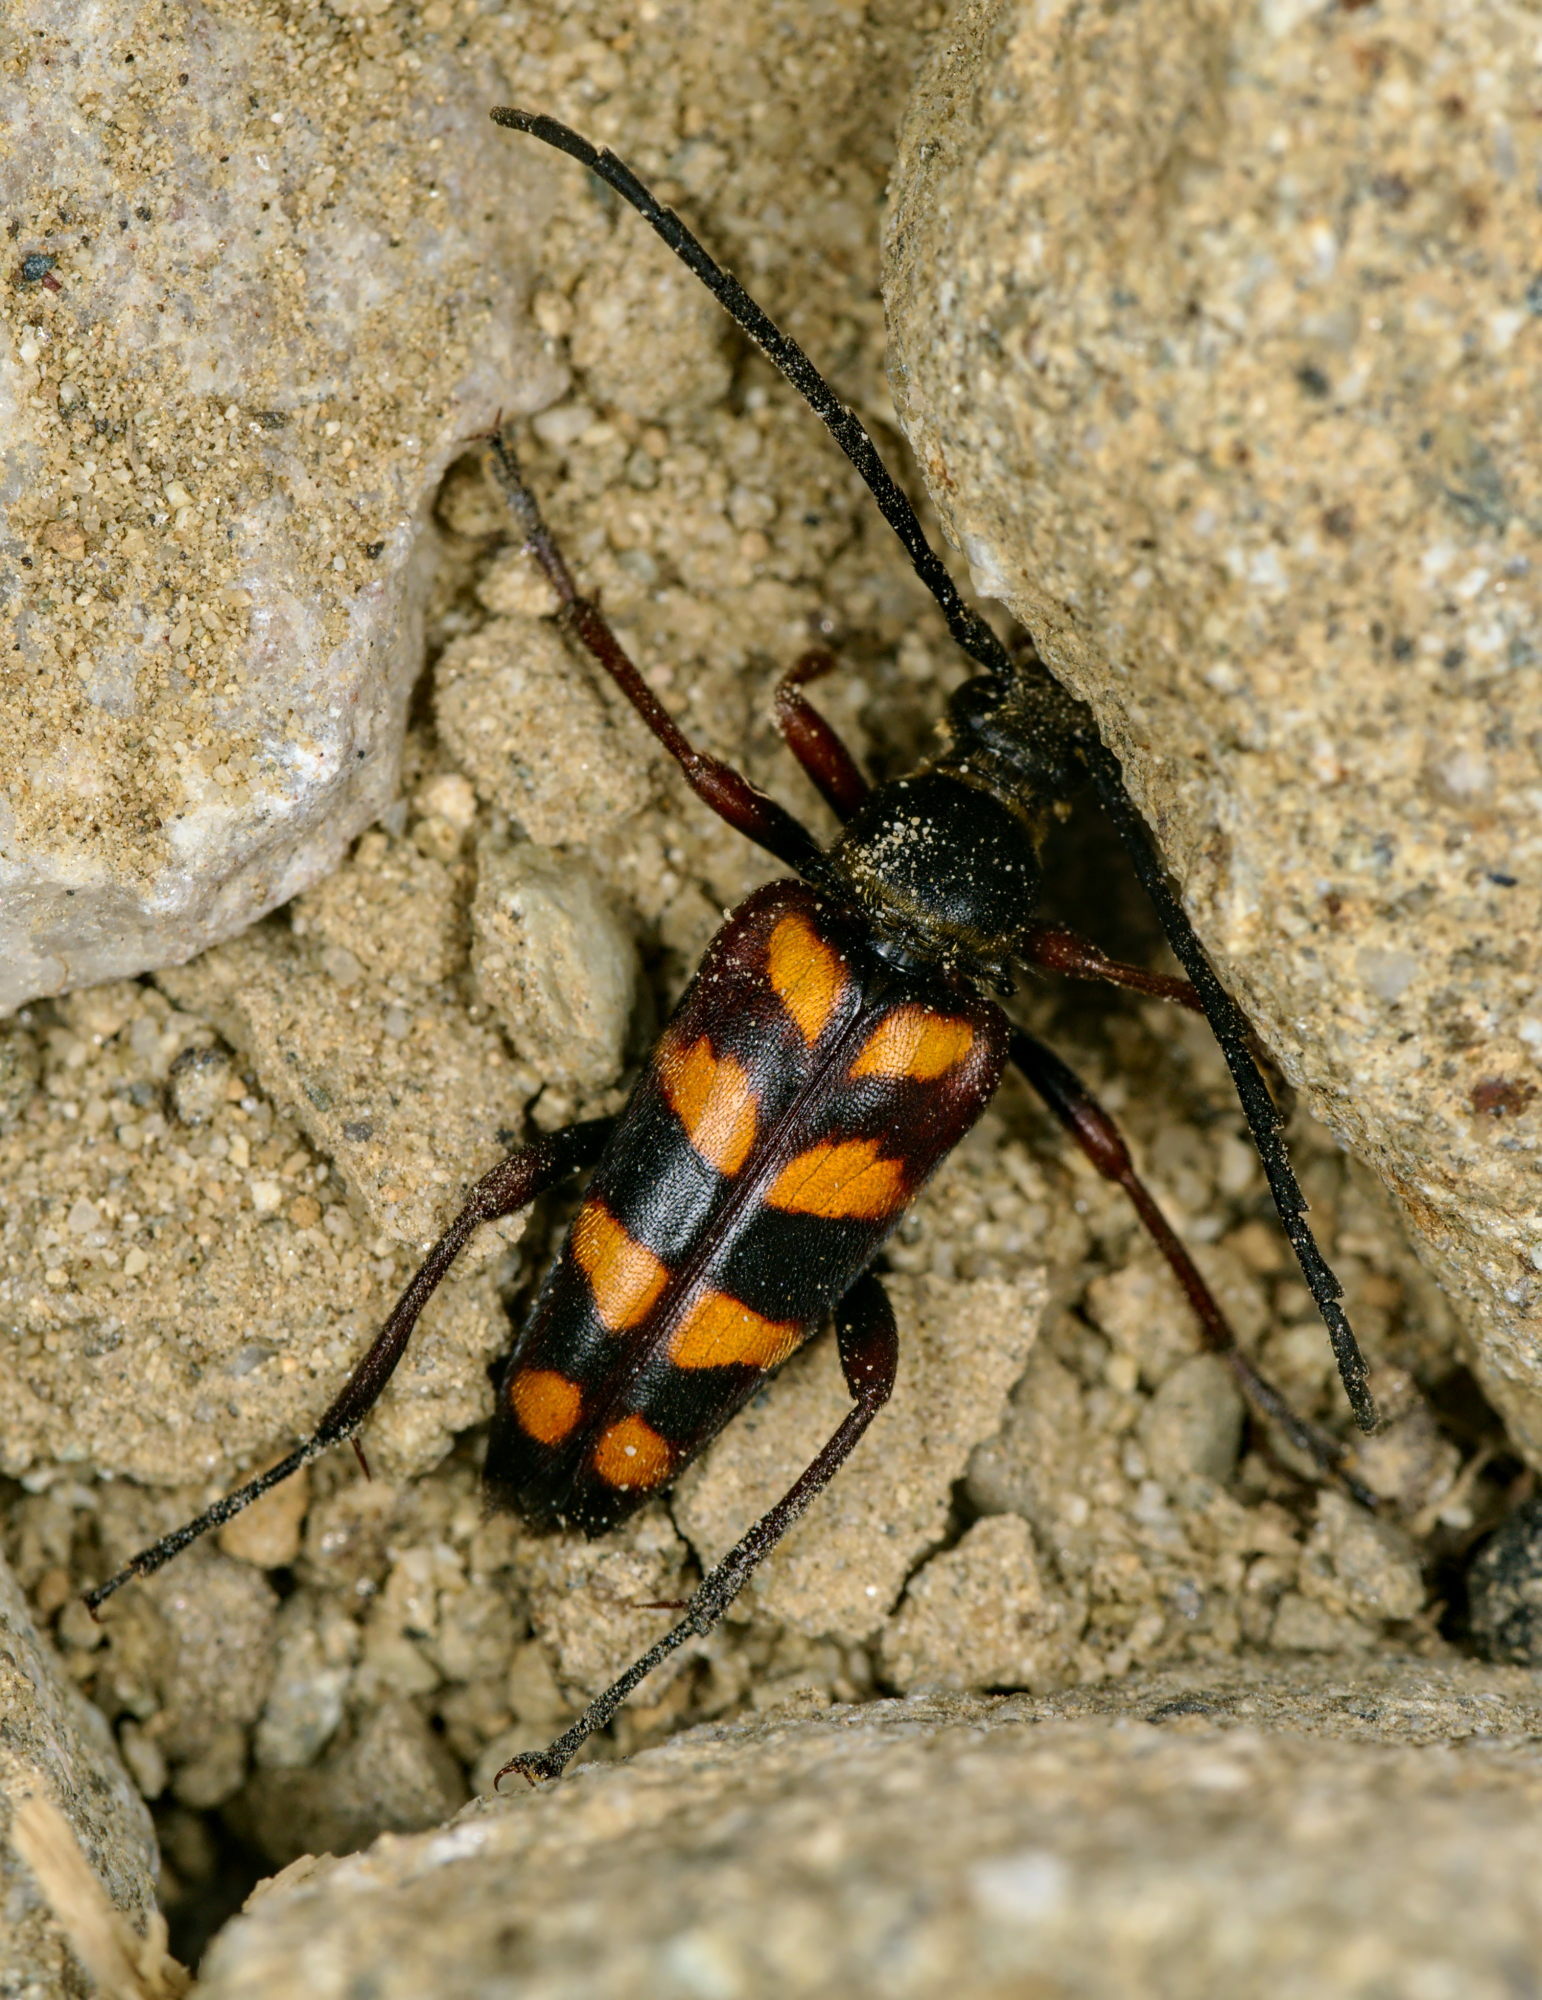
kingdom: Animalia
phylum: Arthropoda
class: Insecta
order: Coleoptera
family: Cerambycidae
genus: Leptura
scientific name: Leptura aurulenta
